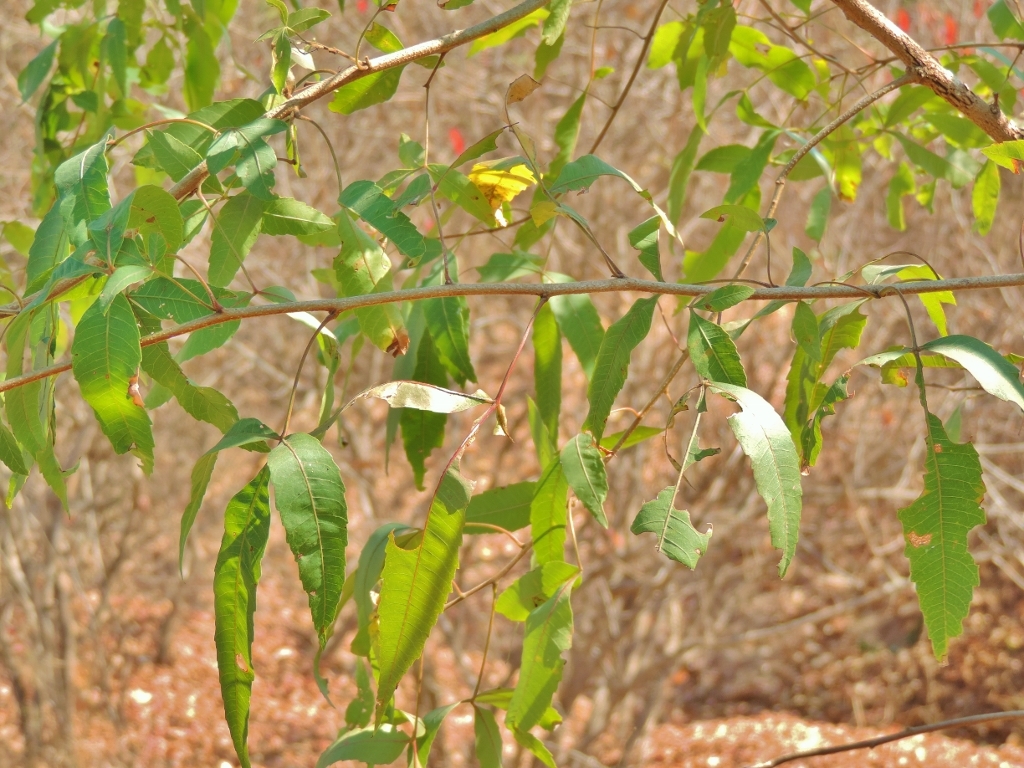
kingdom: Plantae
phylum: Tracheophyta
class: Magnoliopsida
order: Sapindales
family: Anacardiaceae
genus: Searsia
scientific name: Searsia leptodictya
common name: Mountain karee
